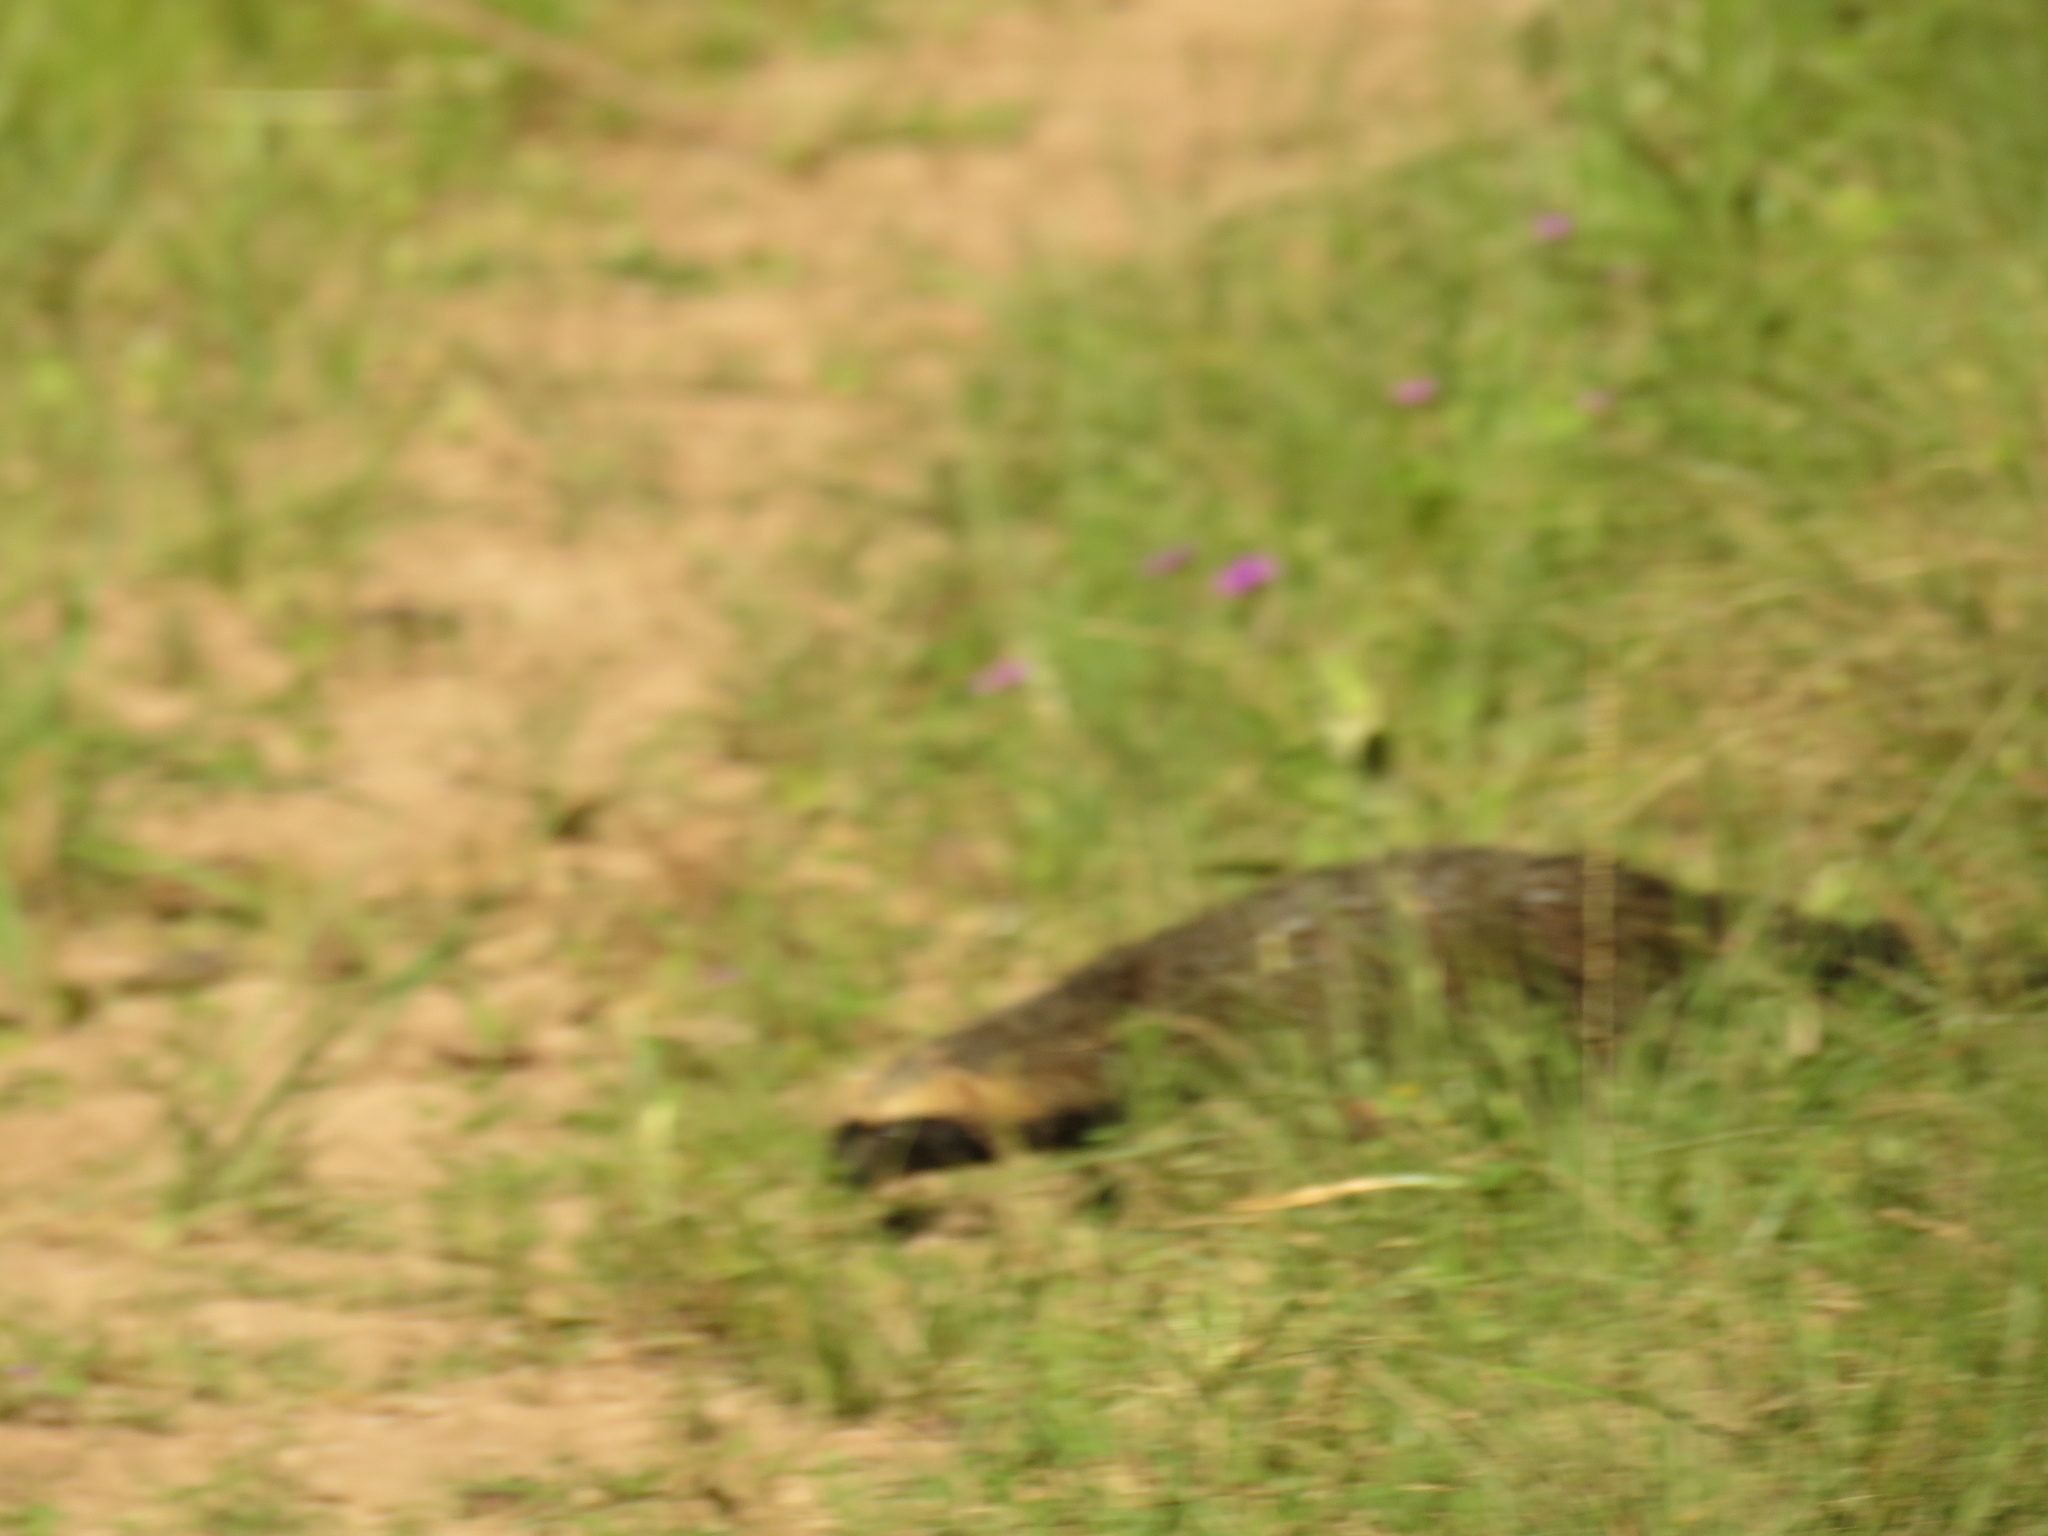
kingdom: Animalia
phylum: Chordata
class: Mammalia
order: Carnivora
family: Mustelidae
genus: Galictis
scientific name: Galictis cuja
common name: Lesser grison
